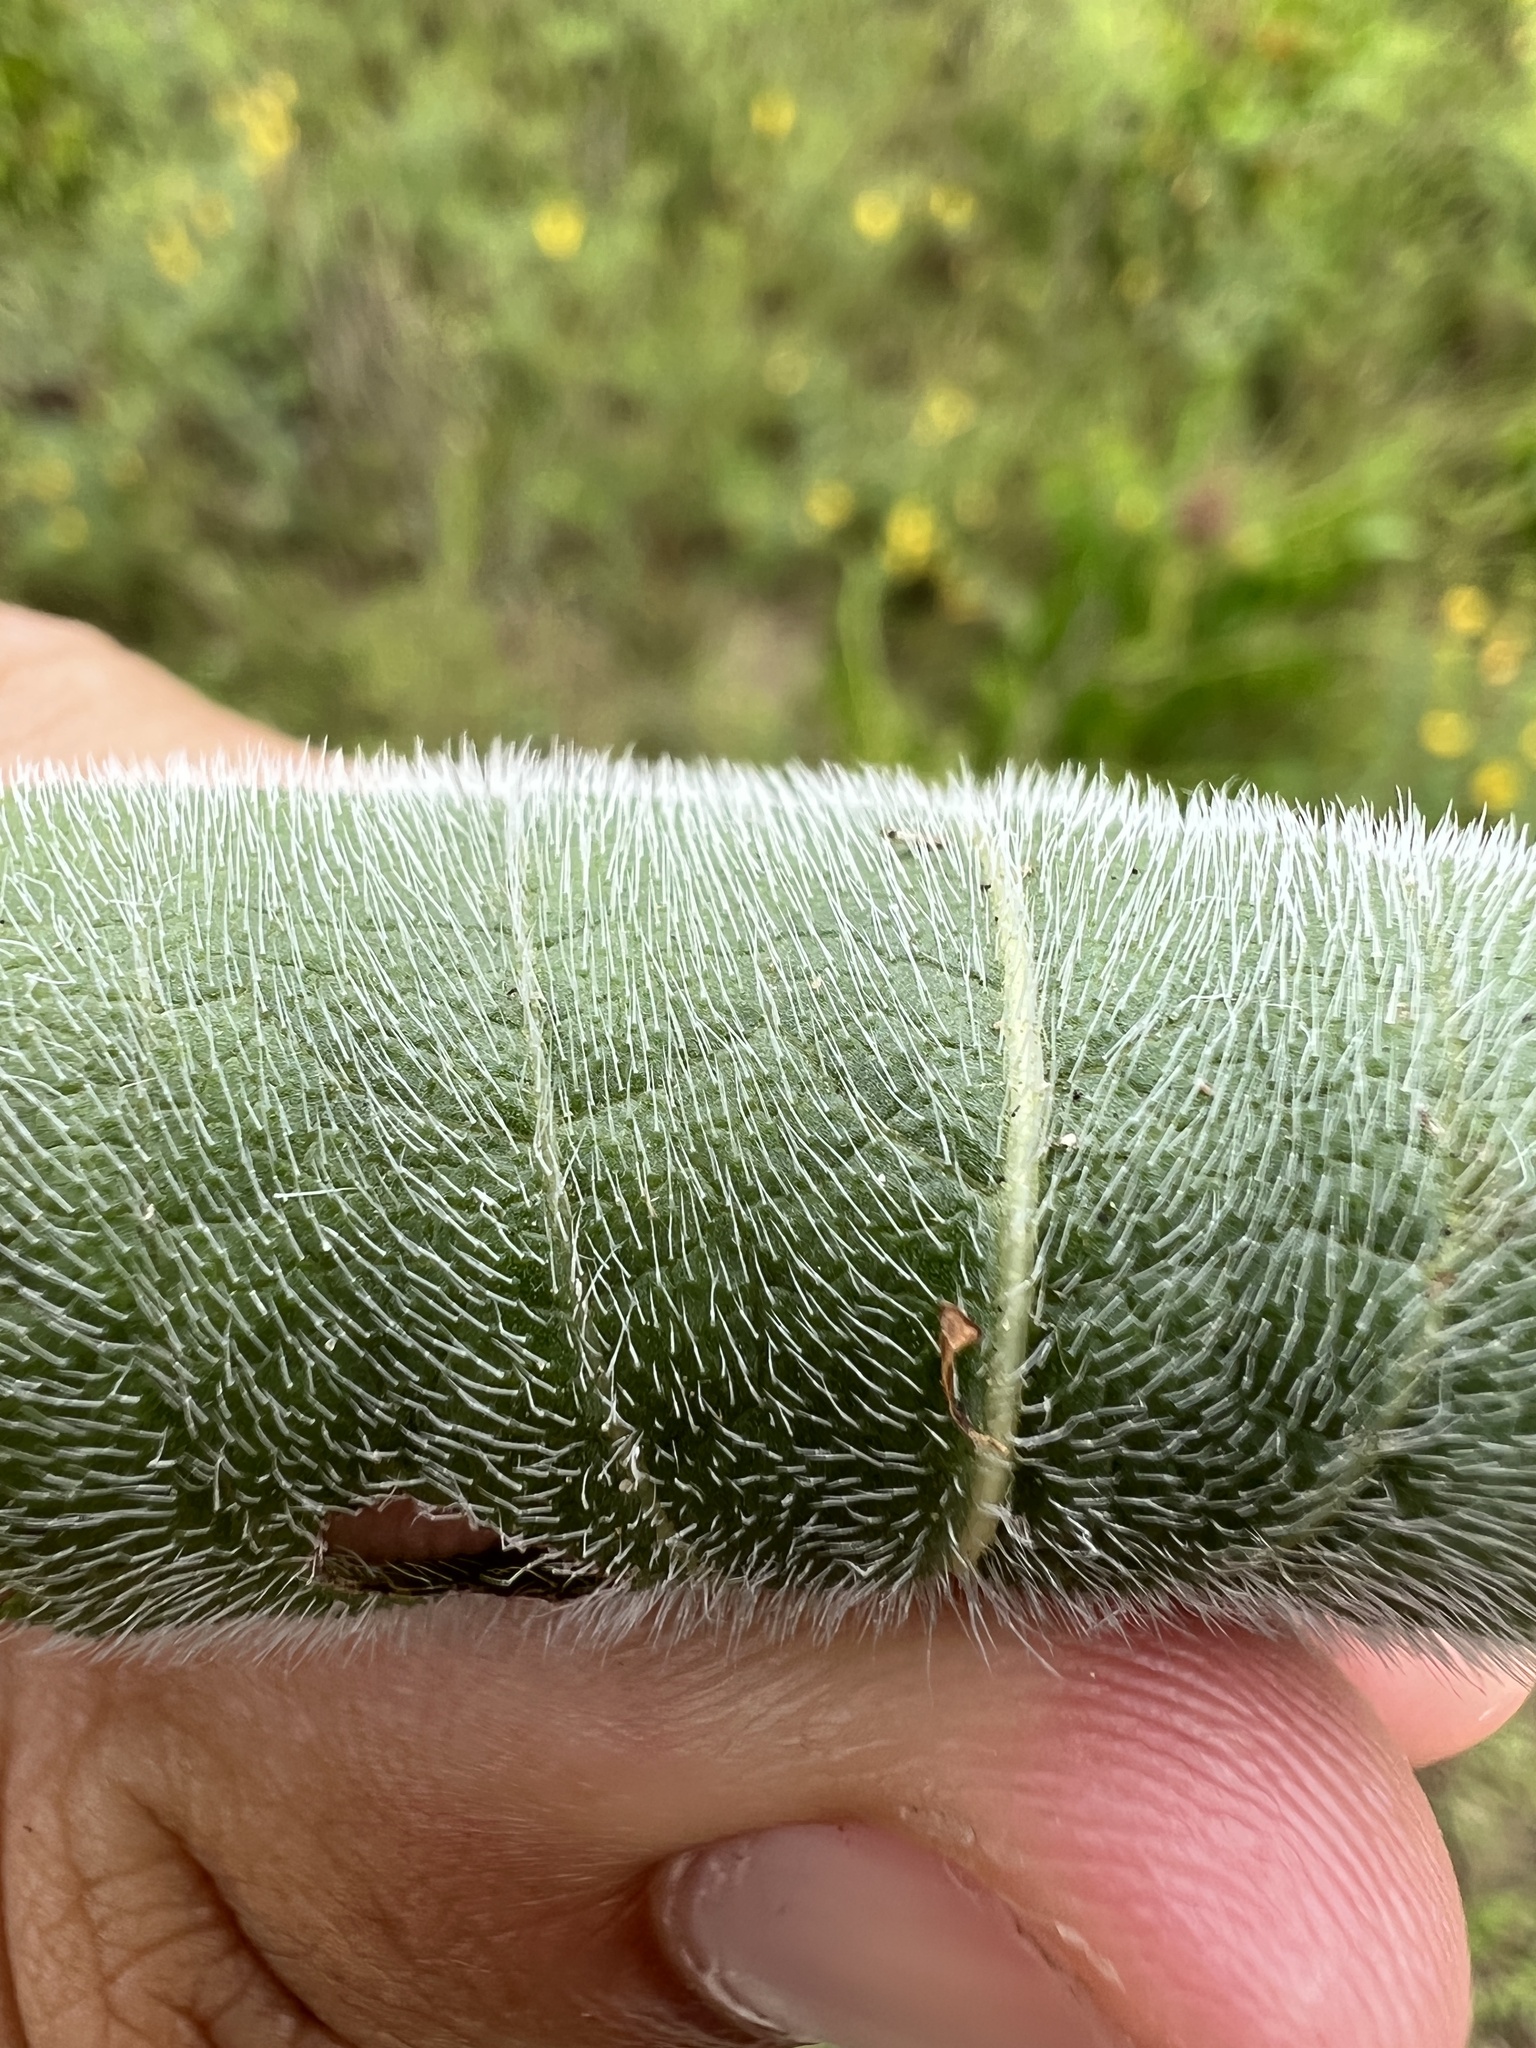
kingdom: Plantae
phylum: Tracheophyta
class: Magnoliopsida
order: Asterales
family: Asteraceae
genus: Rudbeckia
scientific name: Rudbeckia hirta
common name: Black-eyed-susan
